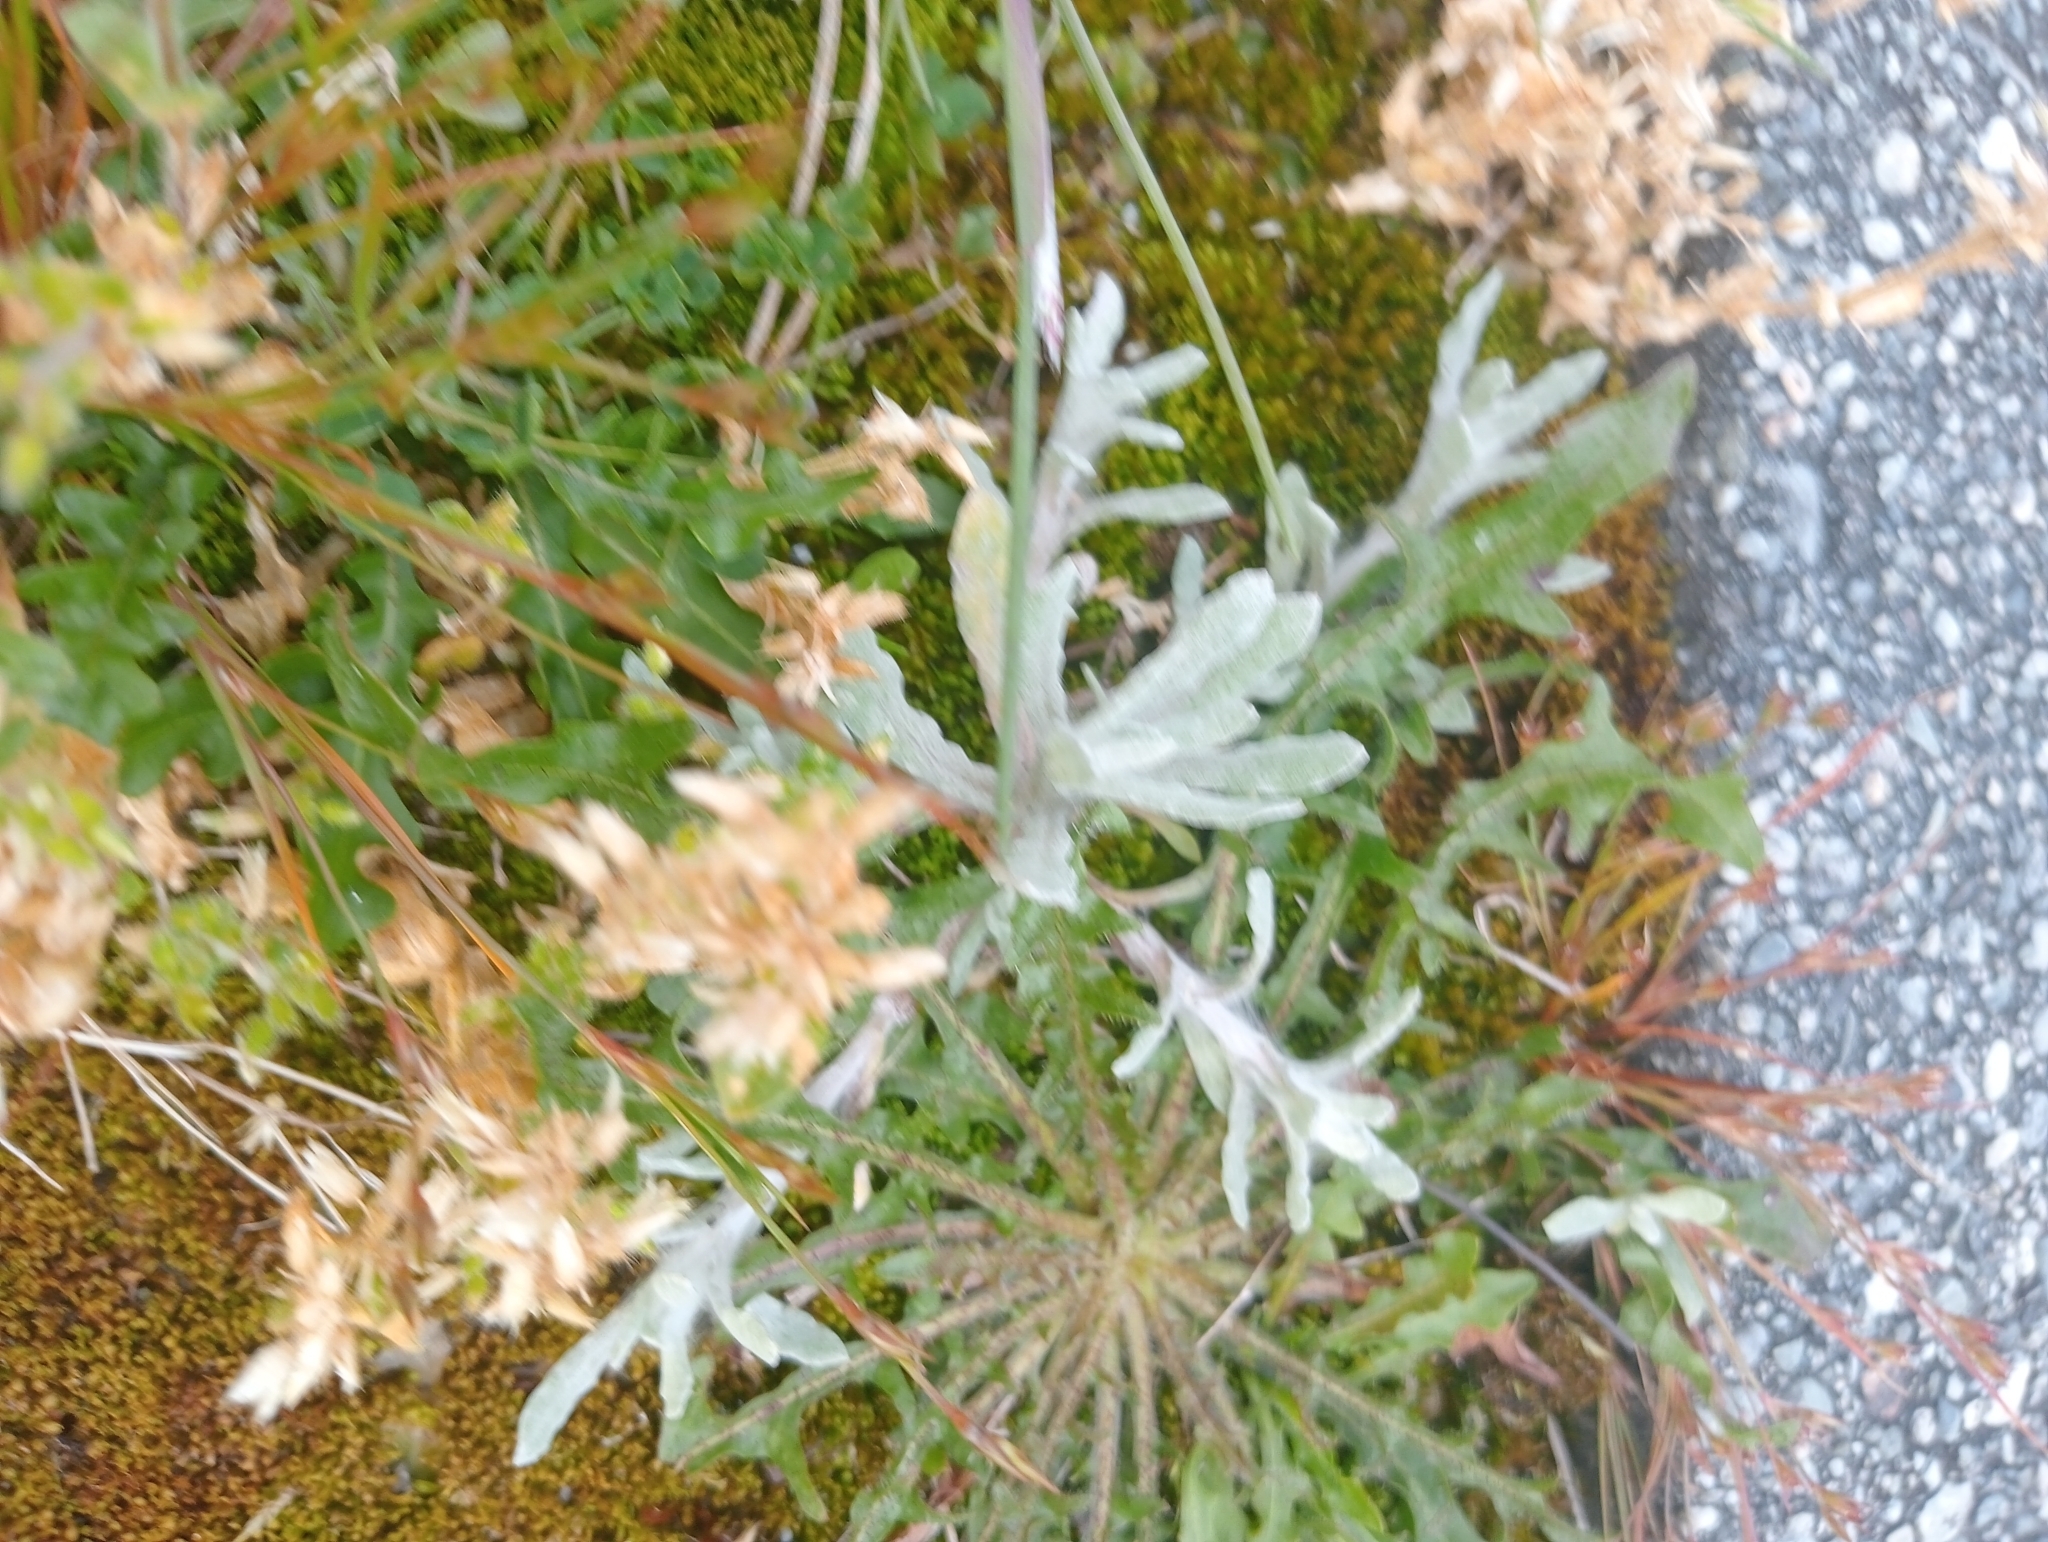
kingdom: Plantae
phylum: Tracheophyta
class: Magnoliopsida
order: Asterales
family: Asteraceae
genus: Helichrysum
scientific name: Helichrysum luteoalbum
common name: Daisy
